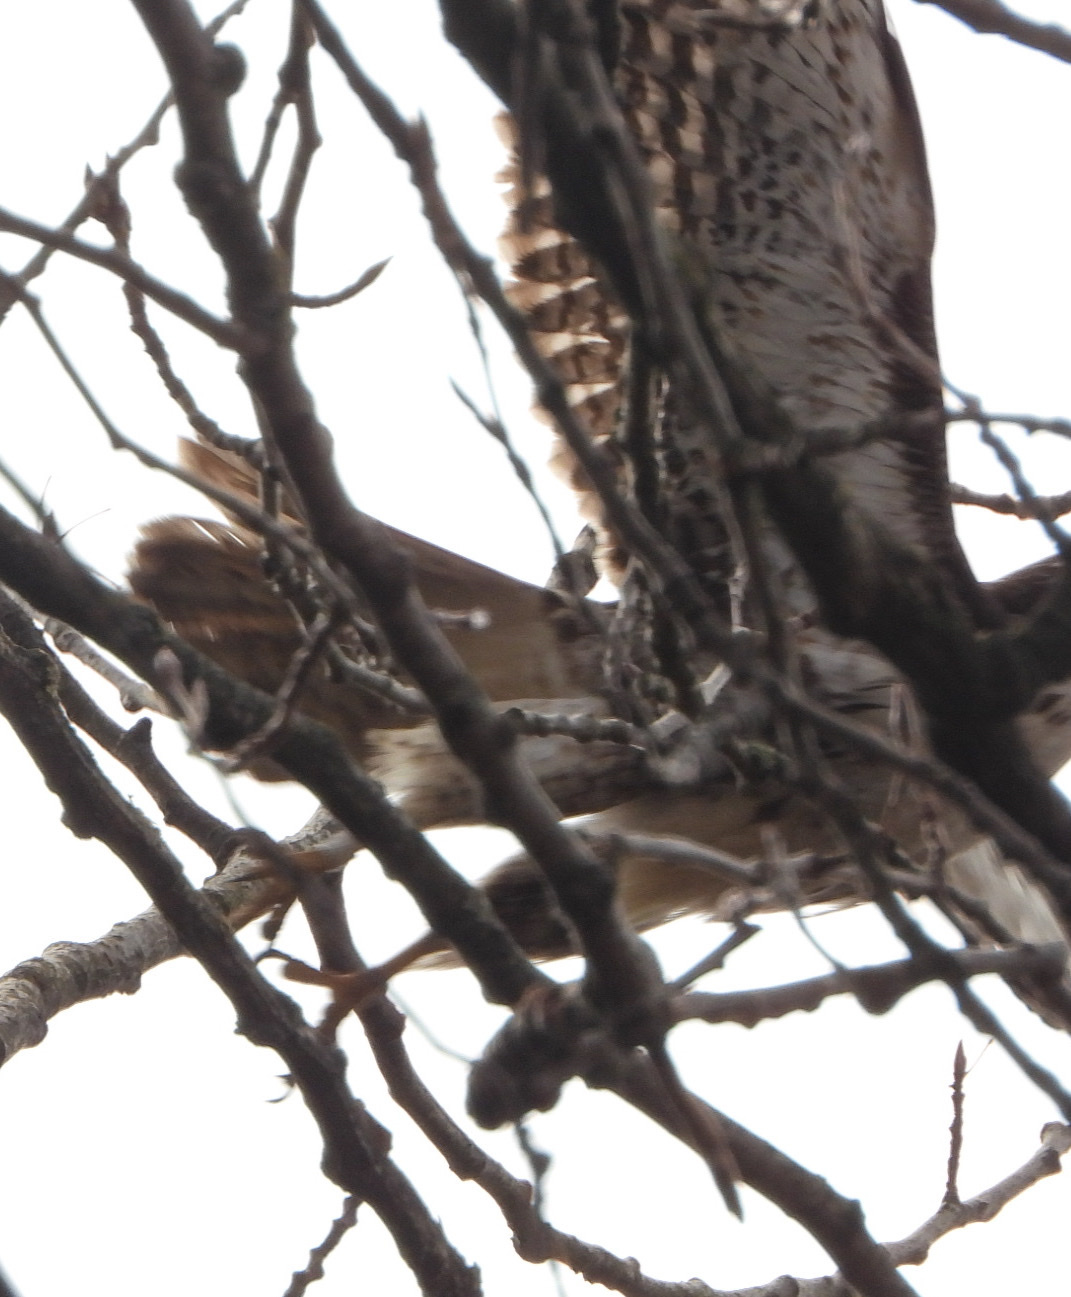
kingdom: Animalia
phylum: Chordata
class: Aves
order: Accipitriformes
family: Accipitridae
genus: Buteo
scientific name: Buteo jamaicensis
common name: Red-tailed hawk
